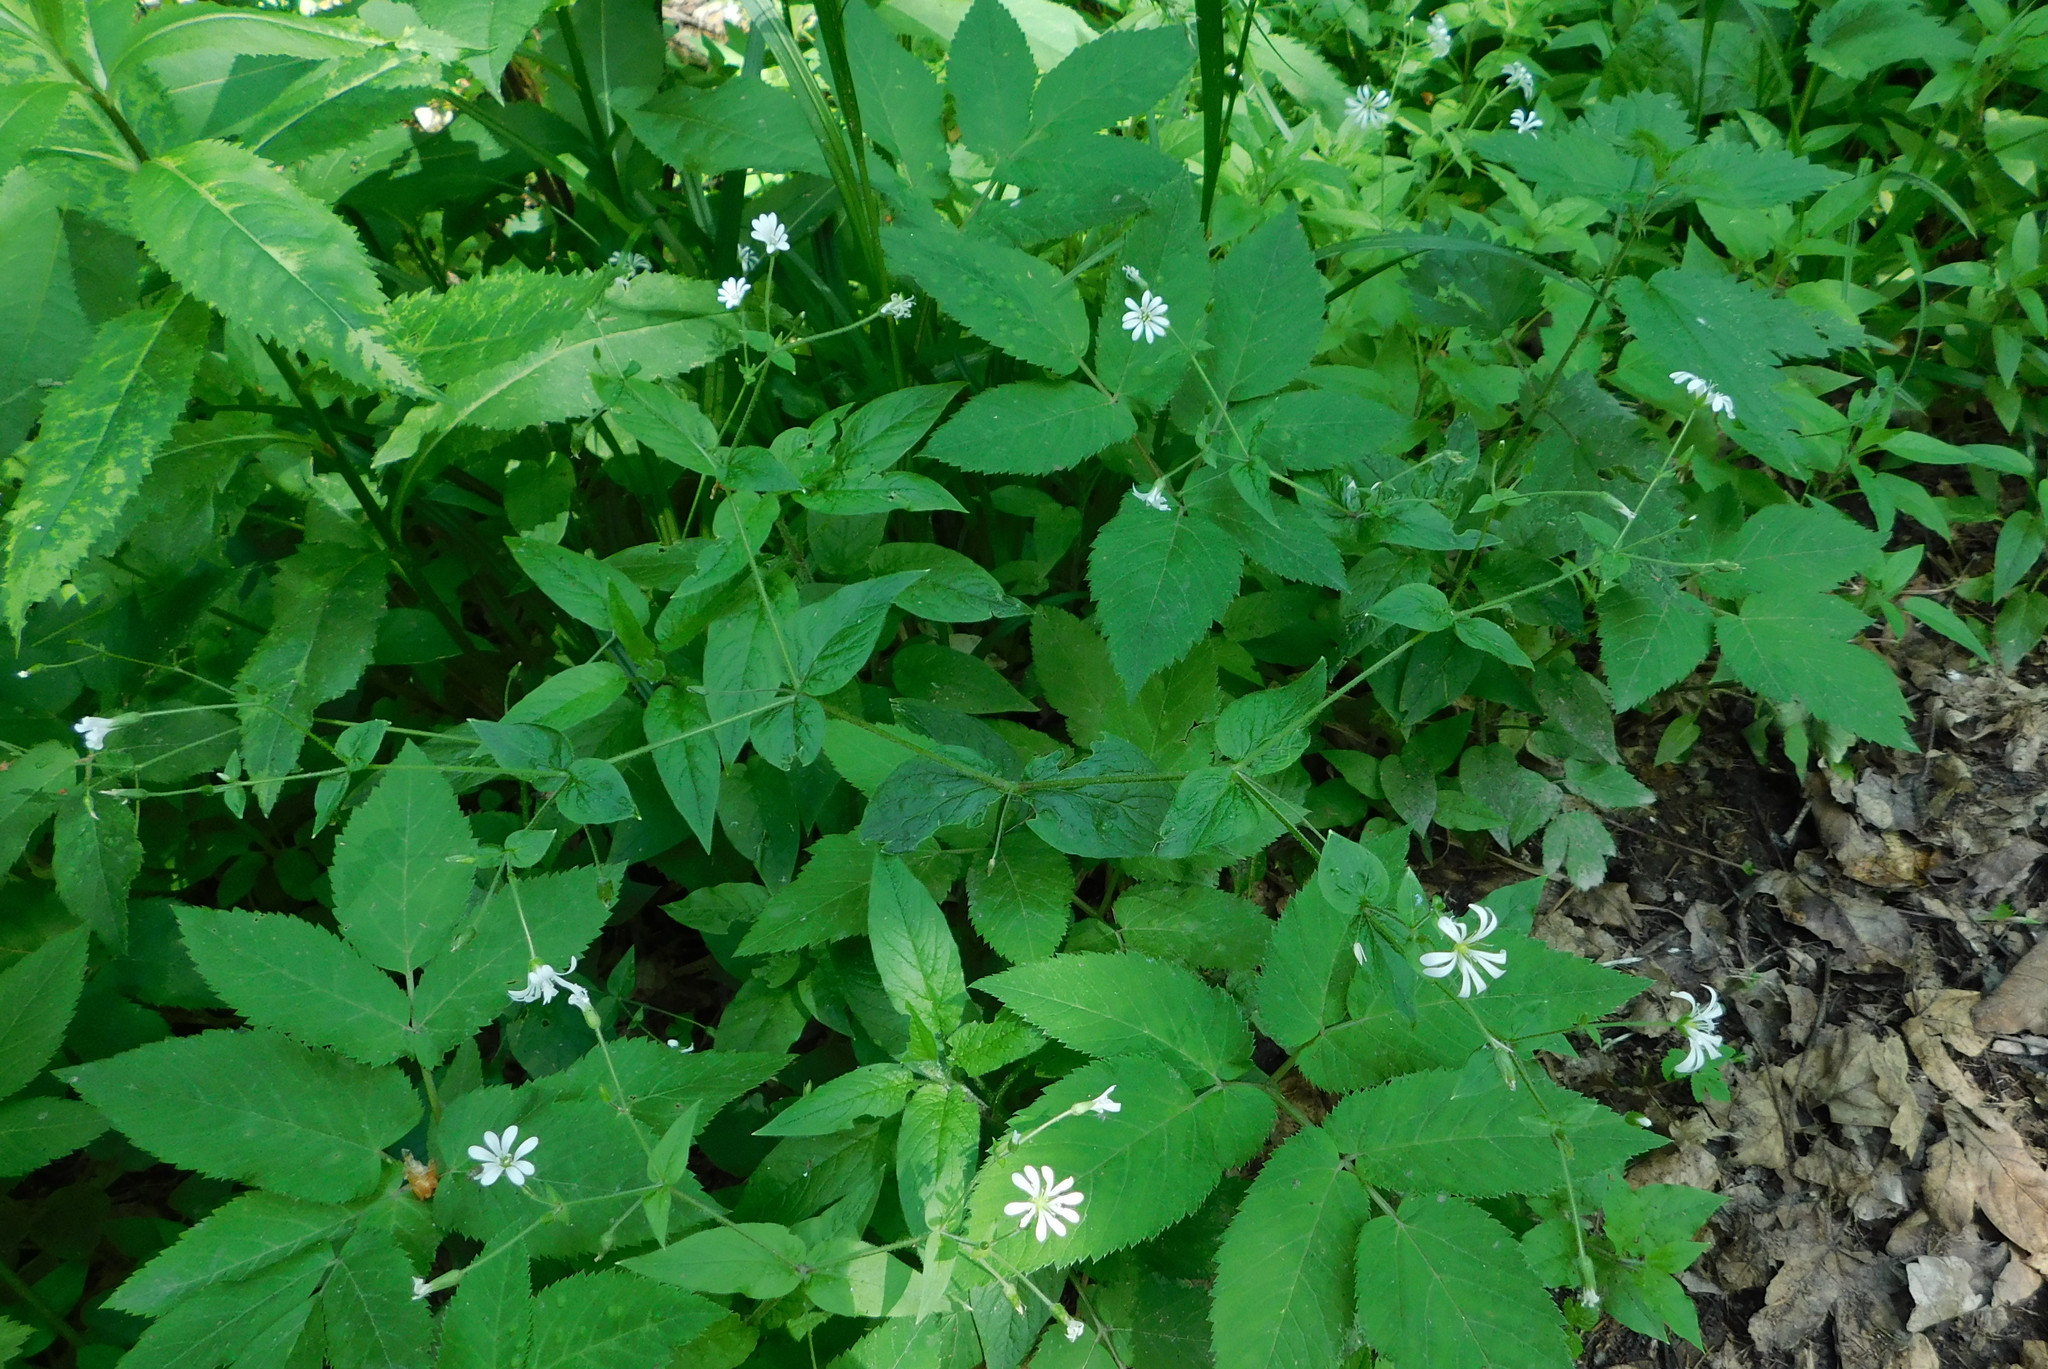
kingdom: Plantae
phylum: Tracheophyta
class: Magnoliopsida
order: Caryophyllales
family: Caryophyllaceae
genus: Stellaria
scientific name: Stellaria nemorum
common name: Wood stitchwort
